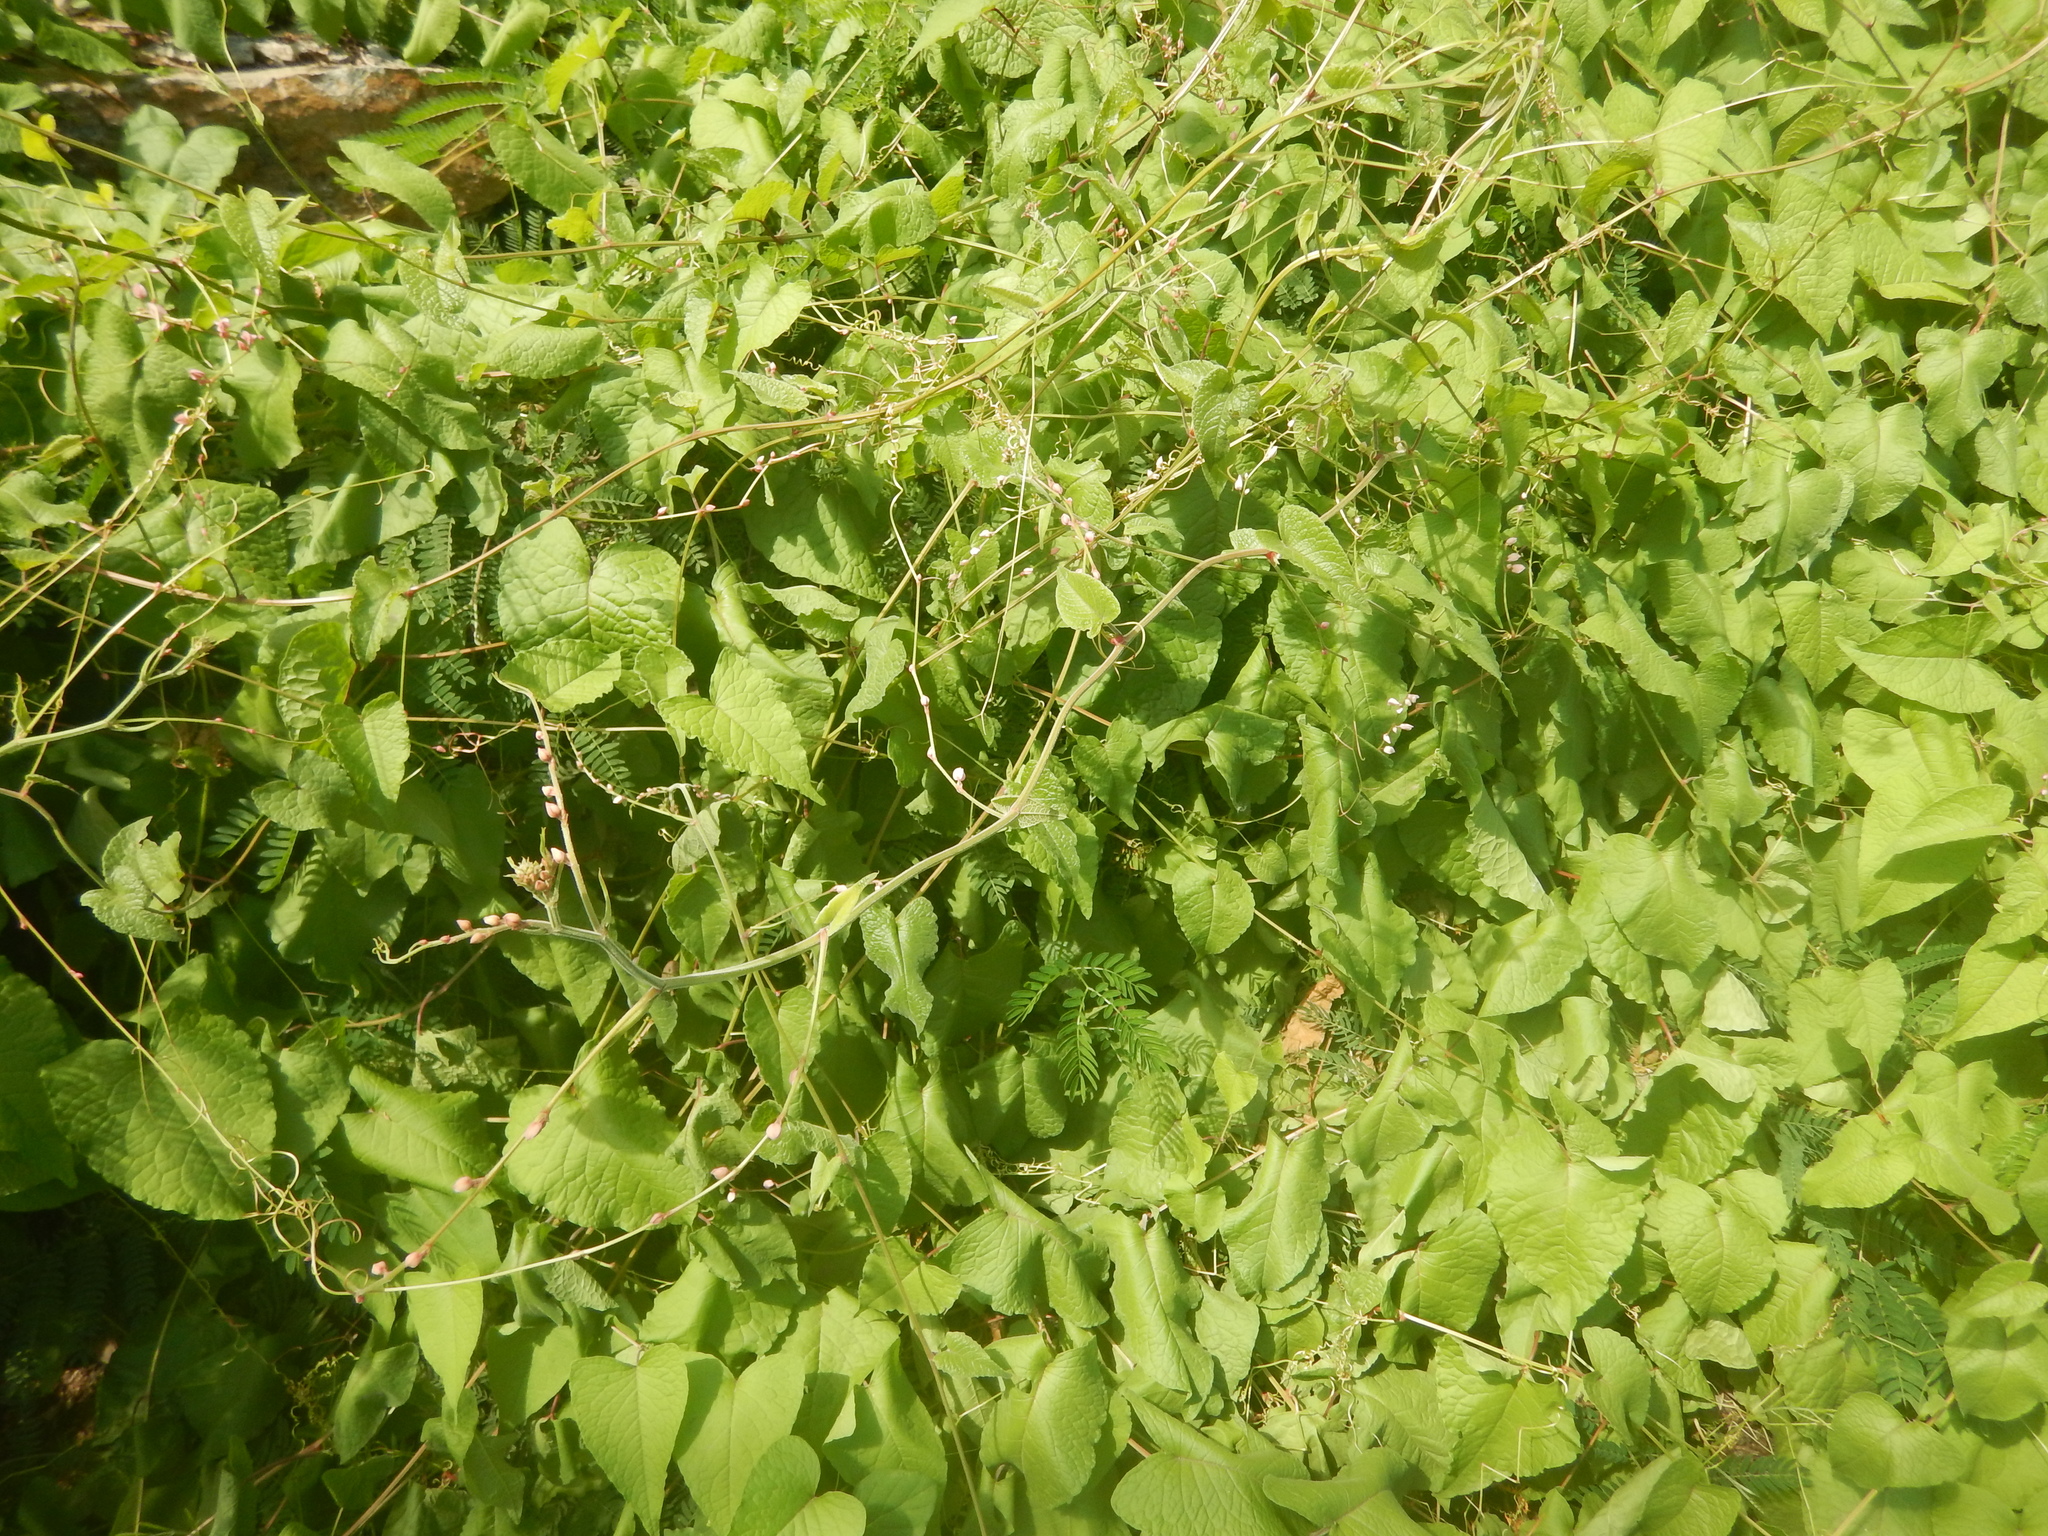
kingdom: Plantae
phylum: Tracheophyta
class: Magnoliopsida
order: Caryophyllales
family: Polygonaceae
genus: Antigonon
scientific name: Antigonon leptopus
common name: Coral vine
